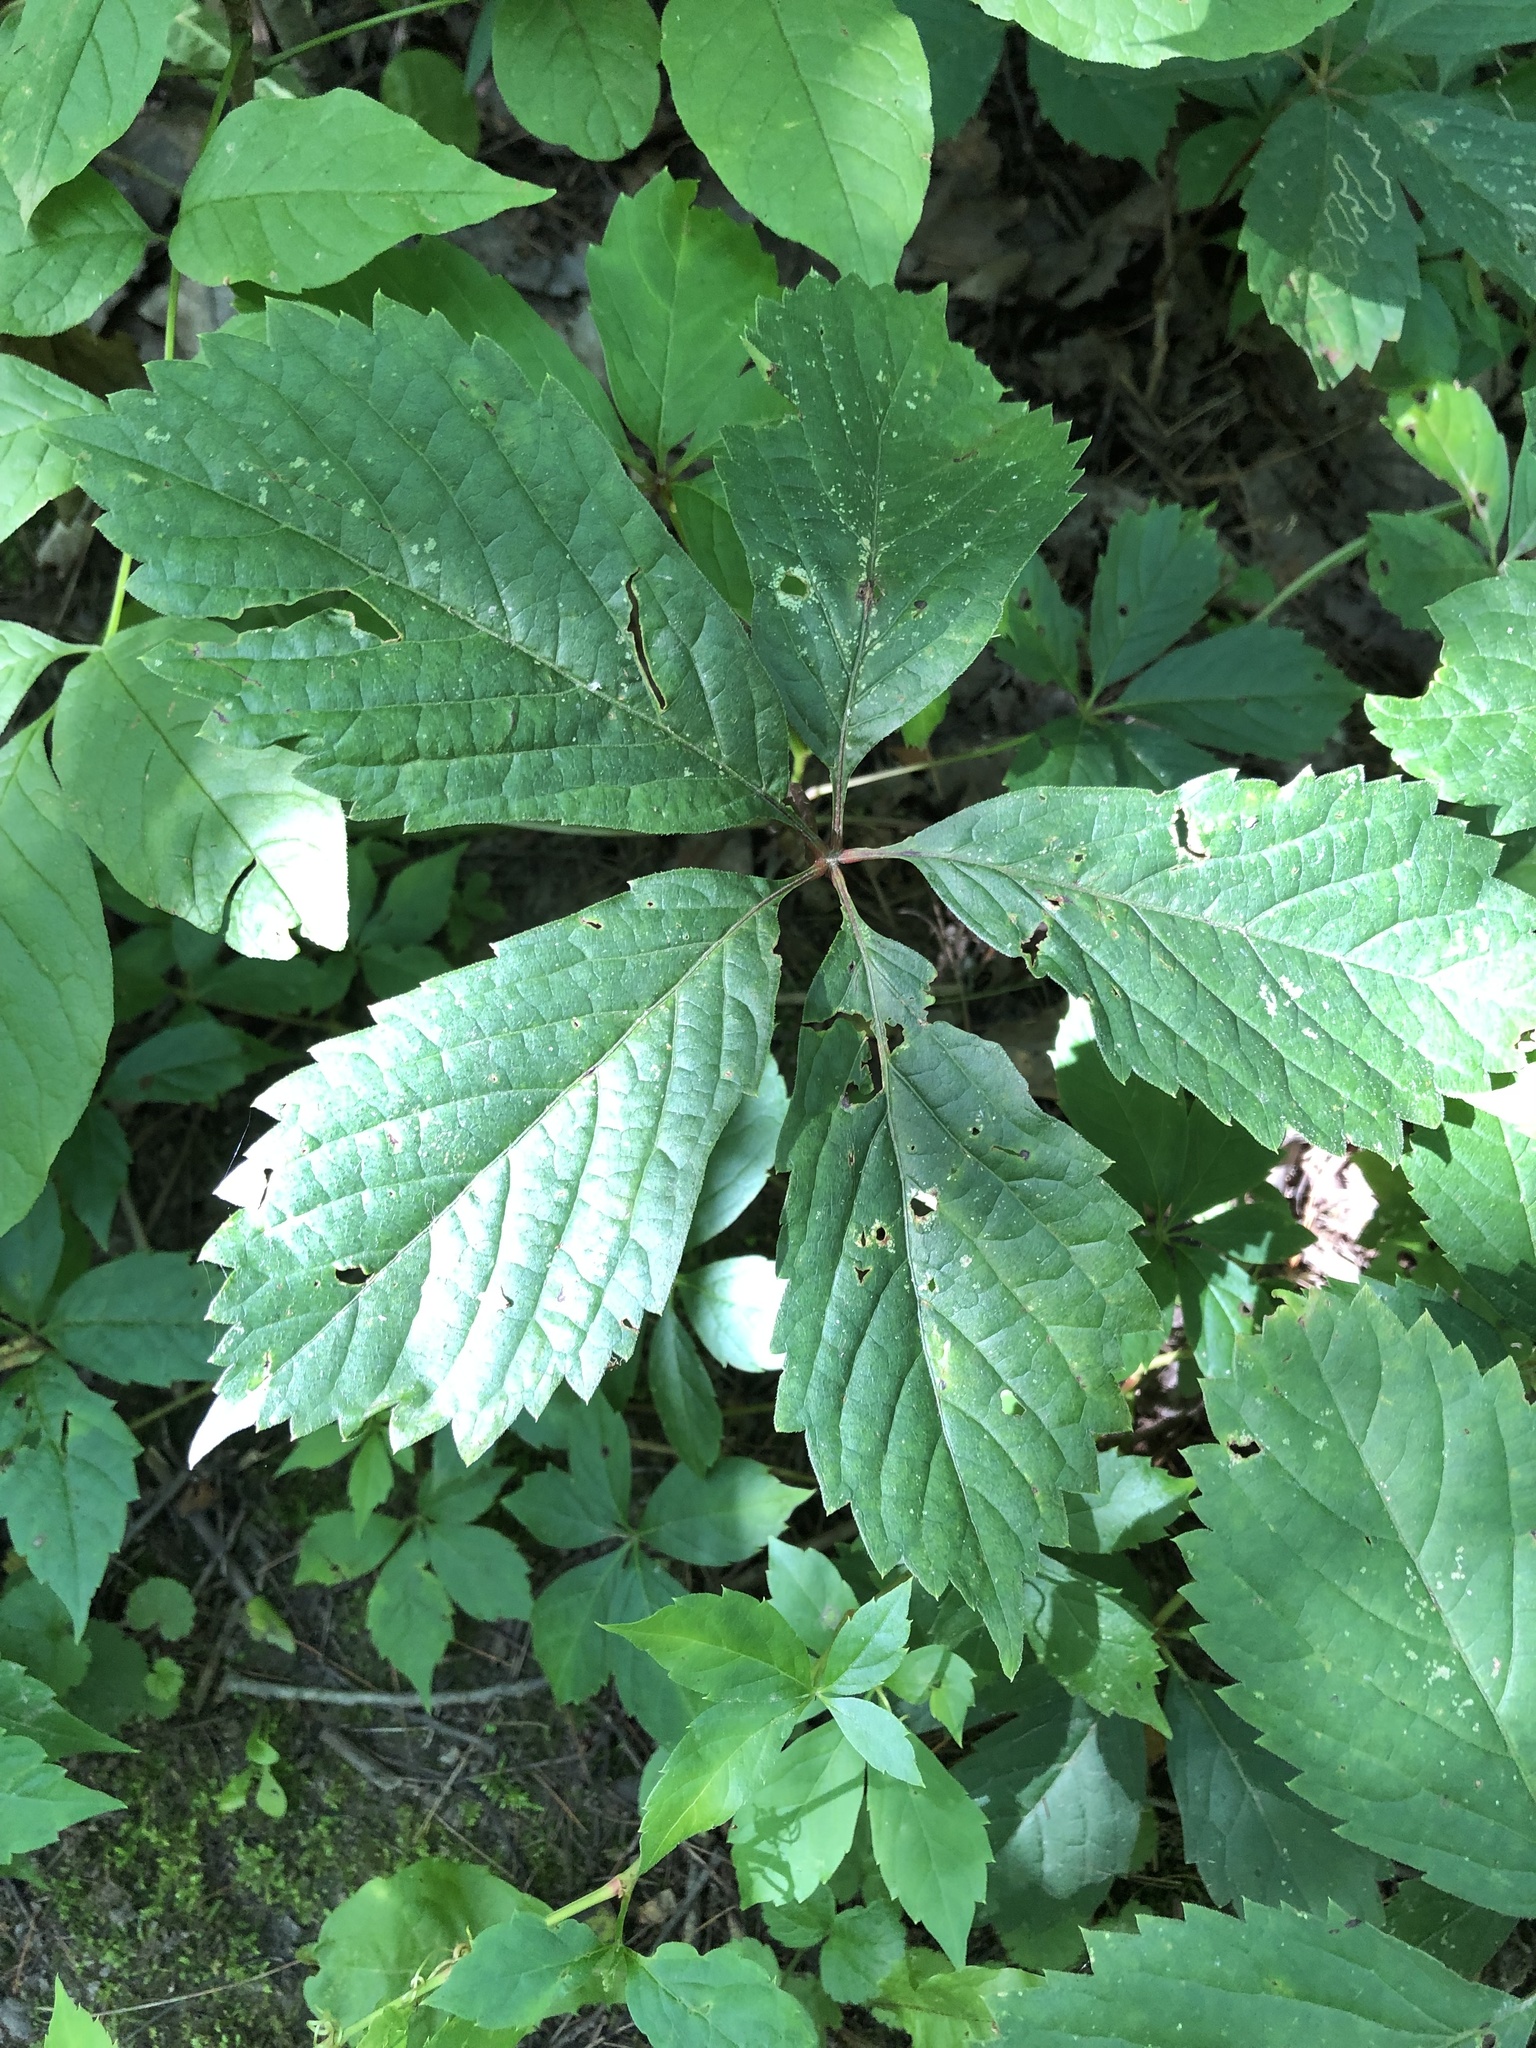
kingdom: Plantae
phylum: Tracheophyta
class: Magnoliopsida
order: Vitales
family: Vitaceae
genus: Parthenocissus
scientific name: Parthenocissus inserta
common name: False virginia-creeper
